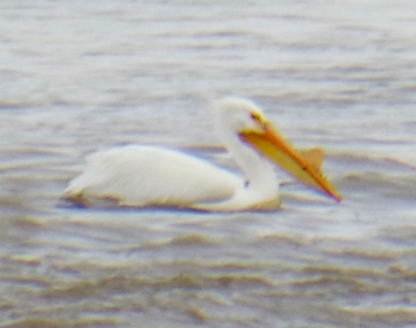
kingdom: Animalia
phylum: Chordata
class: Aves
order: Pelecaniformes
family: Pelecanidae
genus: Pelecanus
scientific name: Pelecanus erythrorhynchos
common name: American white pelican
